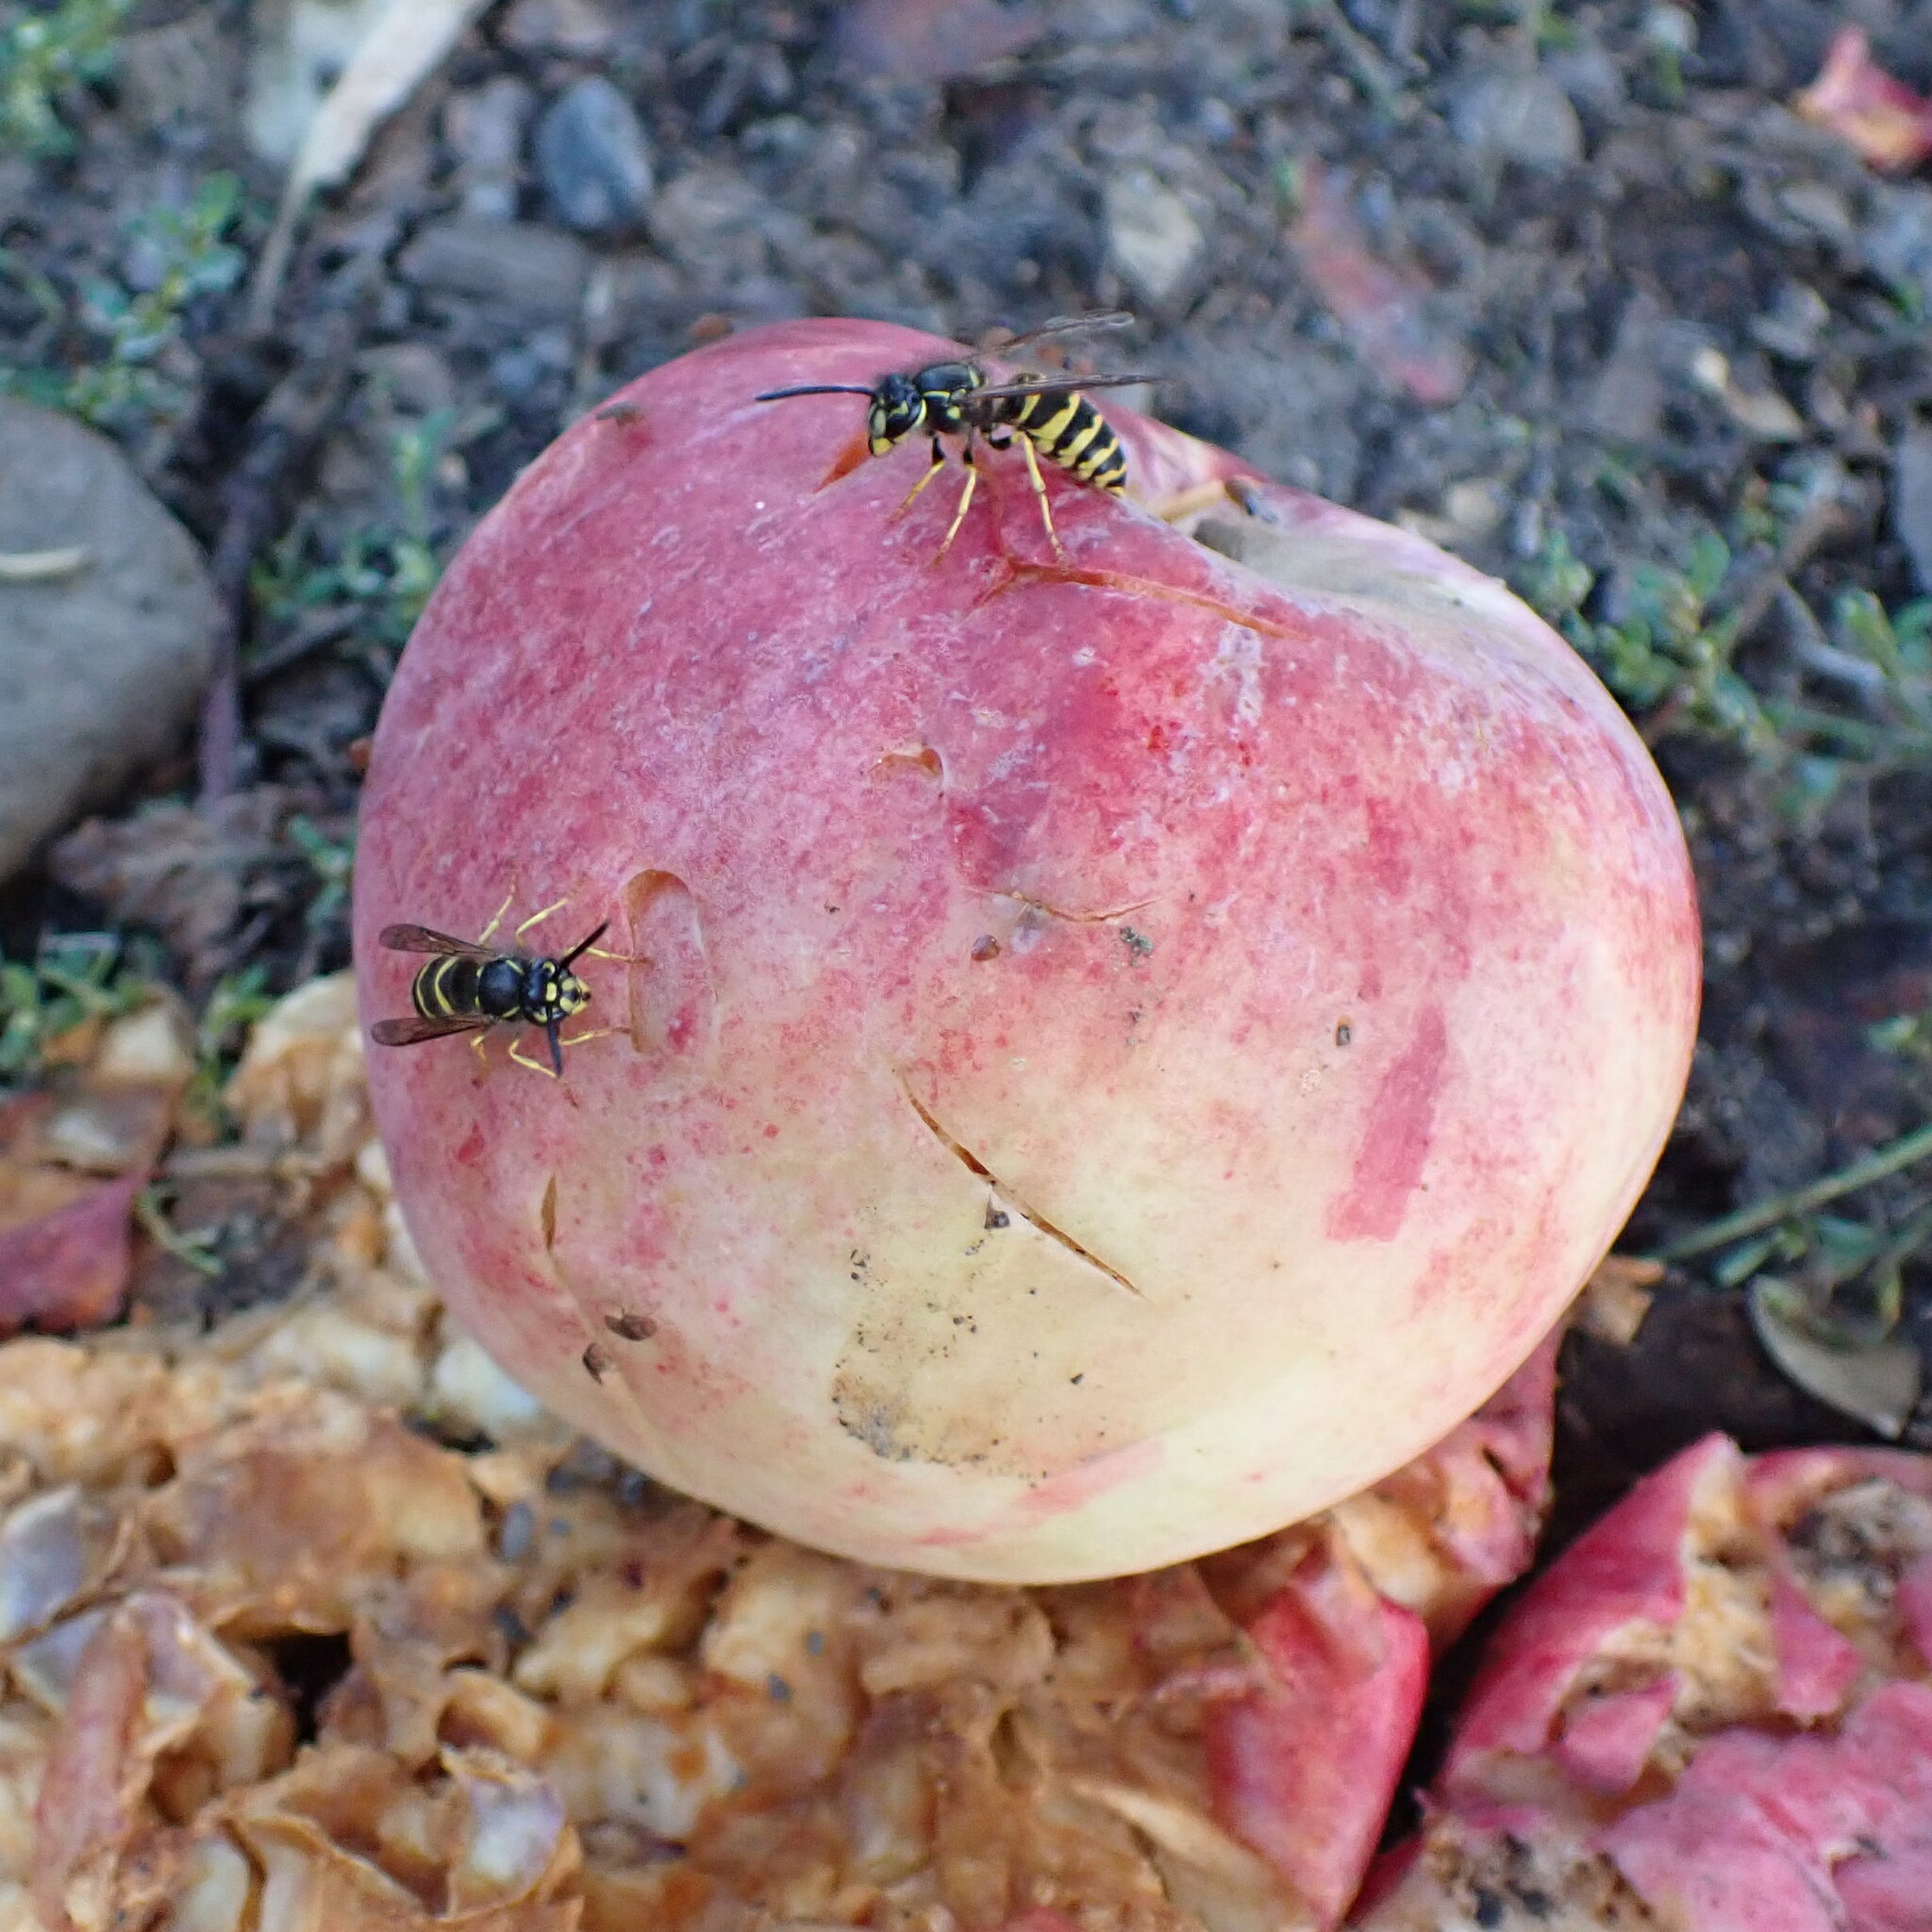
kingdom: Animalia
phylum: Arthropoda
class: Insecta
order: Hymenoptera
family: Vespidae
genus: Vespula
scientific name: Vespula alascensis
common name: Alaska yellowjacket
